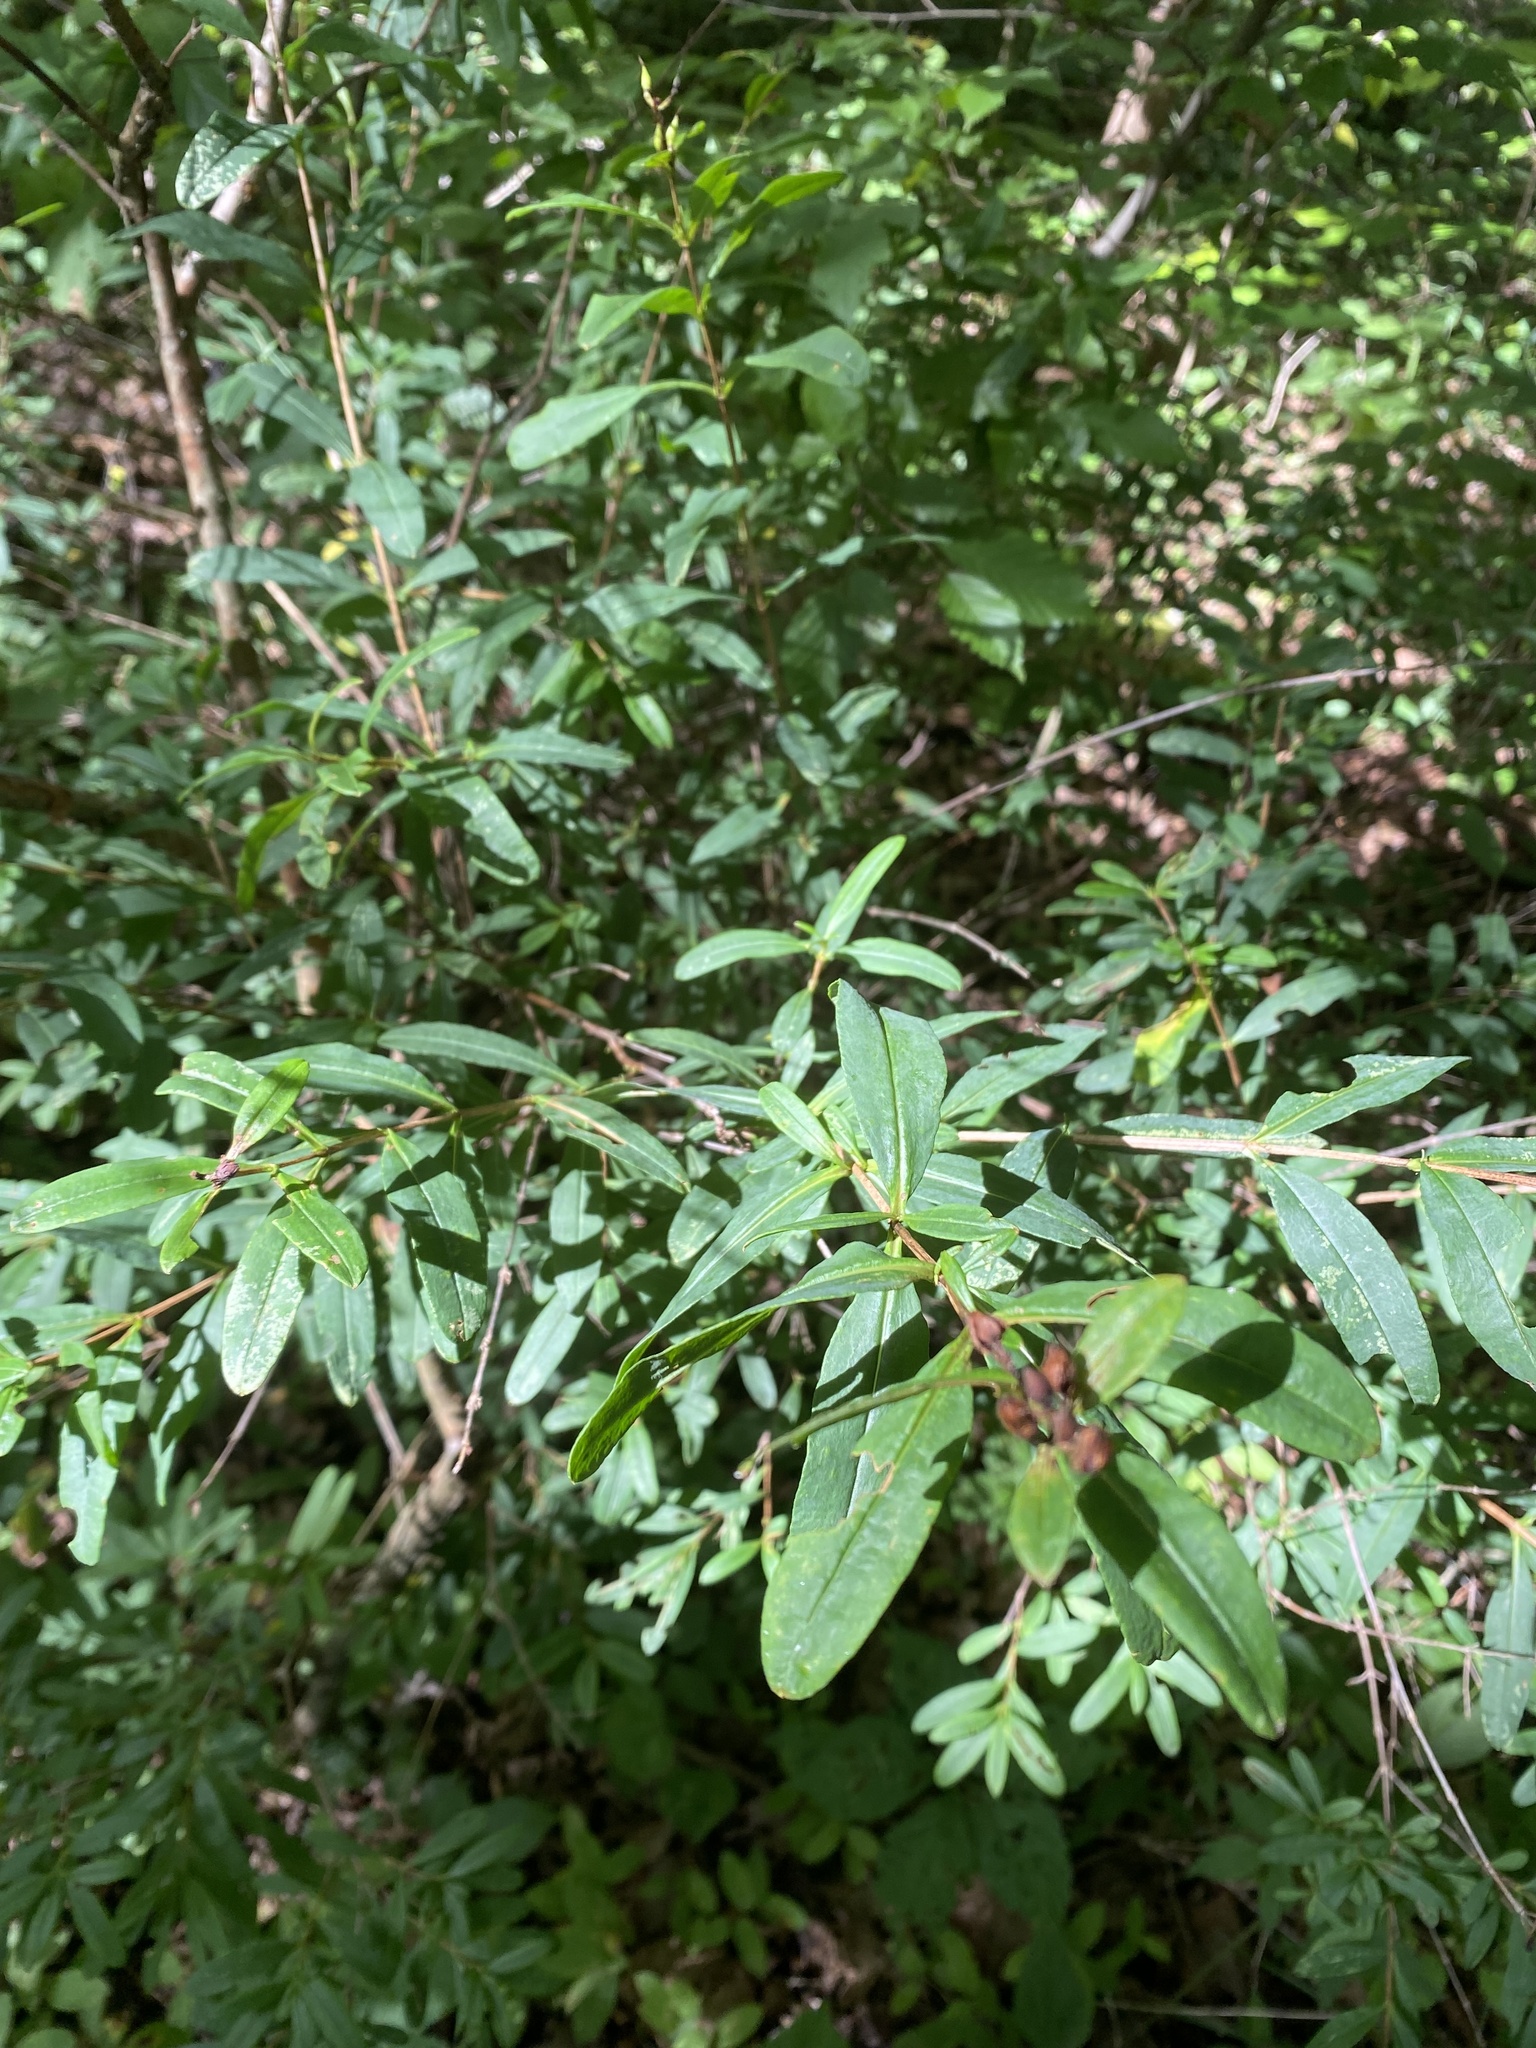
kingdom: Plantae
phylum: Tracheophyta
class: Magnoliopsida
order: Malpighiales
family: Hypericaceae
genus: Hypericum
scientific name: Hypericum prolificum
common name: Shrubby st. john's-wort
